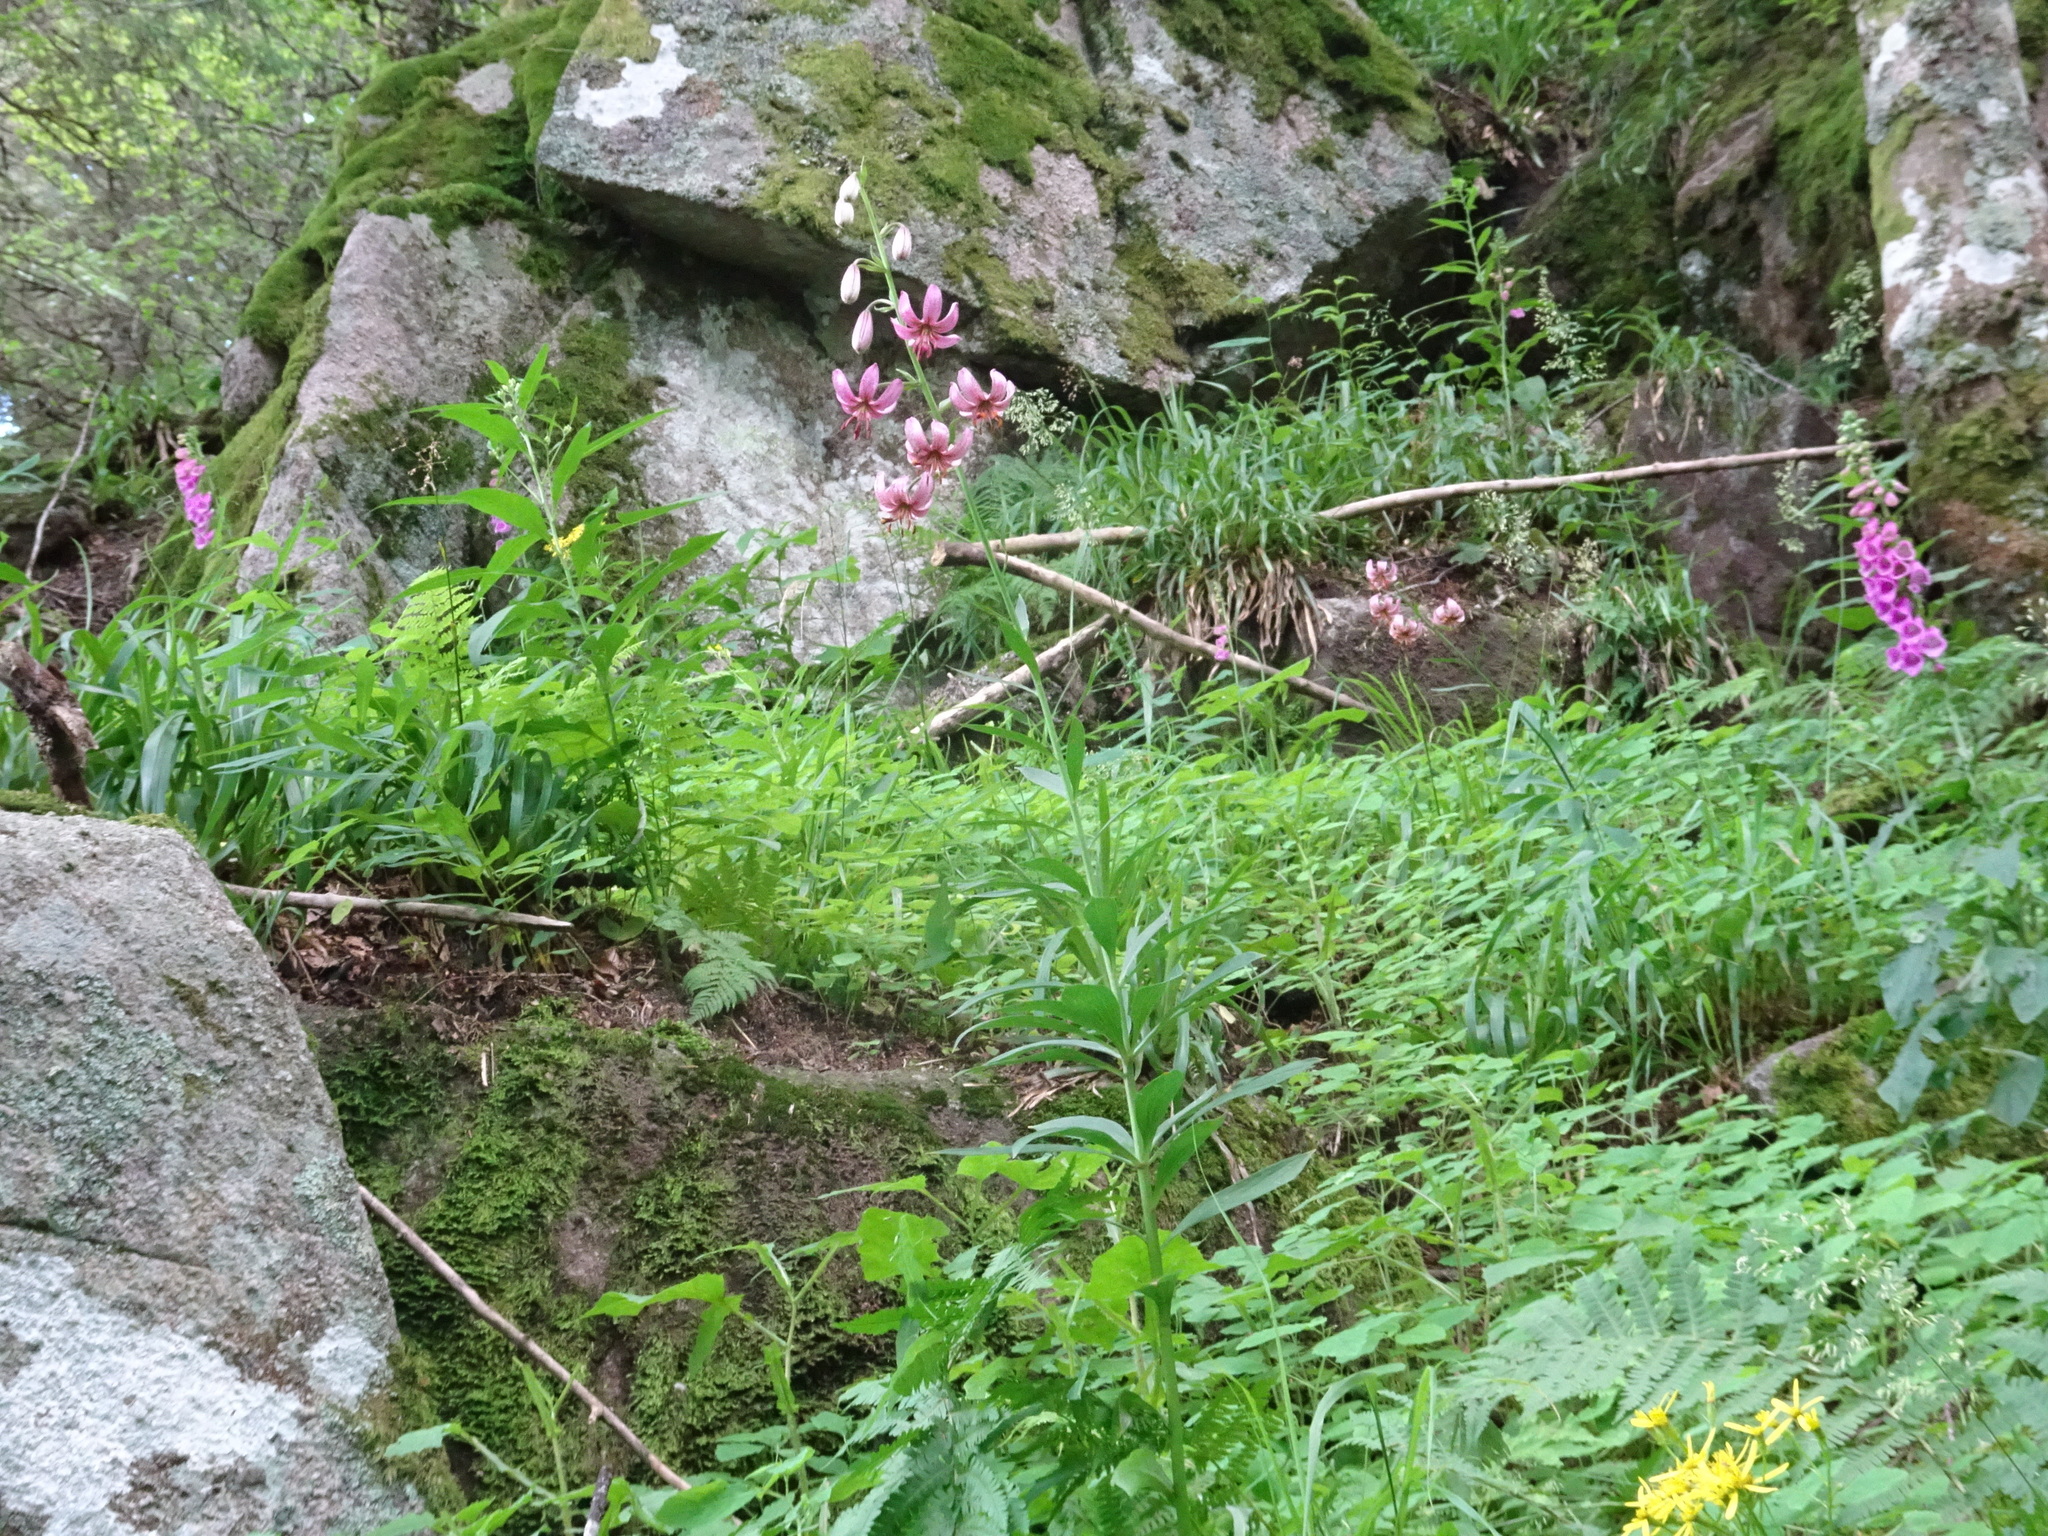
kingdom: Plantae
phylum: Tracheophyta
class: Liliopsida
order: Liliales
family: Liliaceae
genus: Lilium
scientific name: Lilium martagon
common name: Martagon lily
